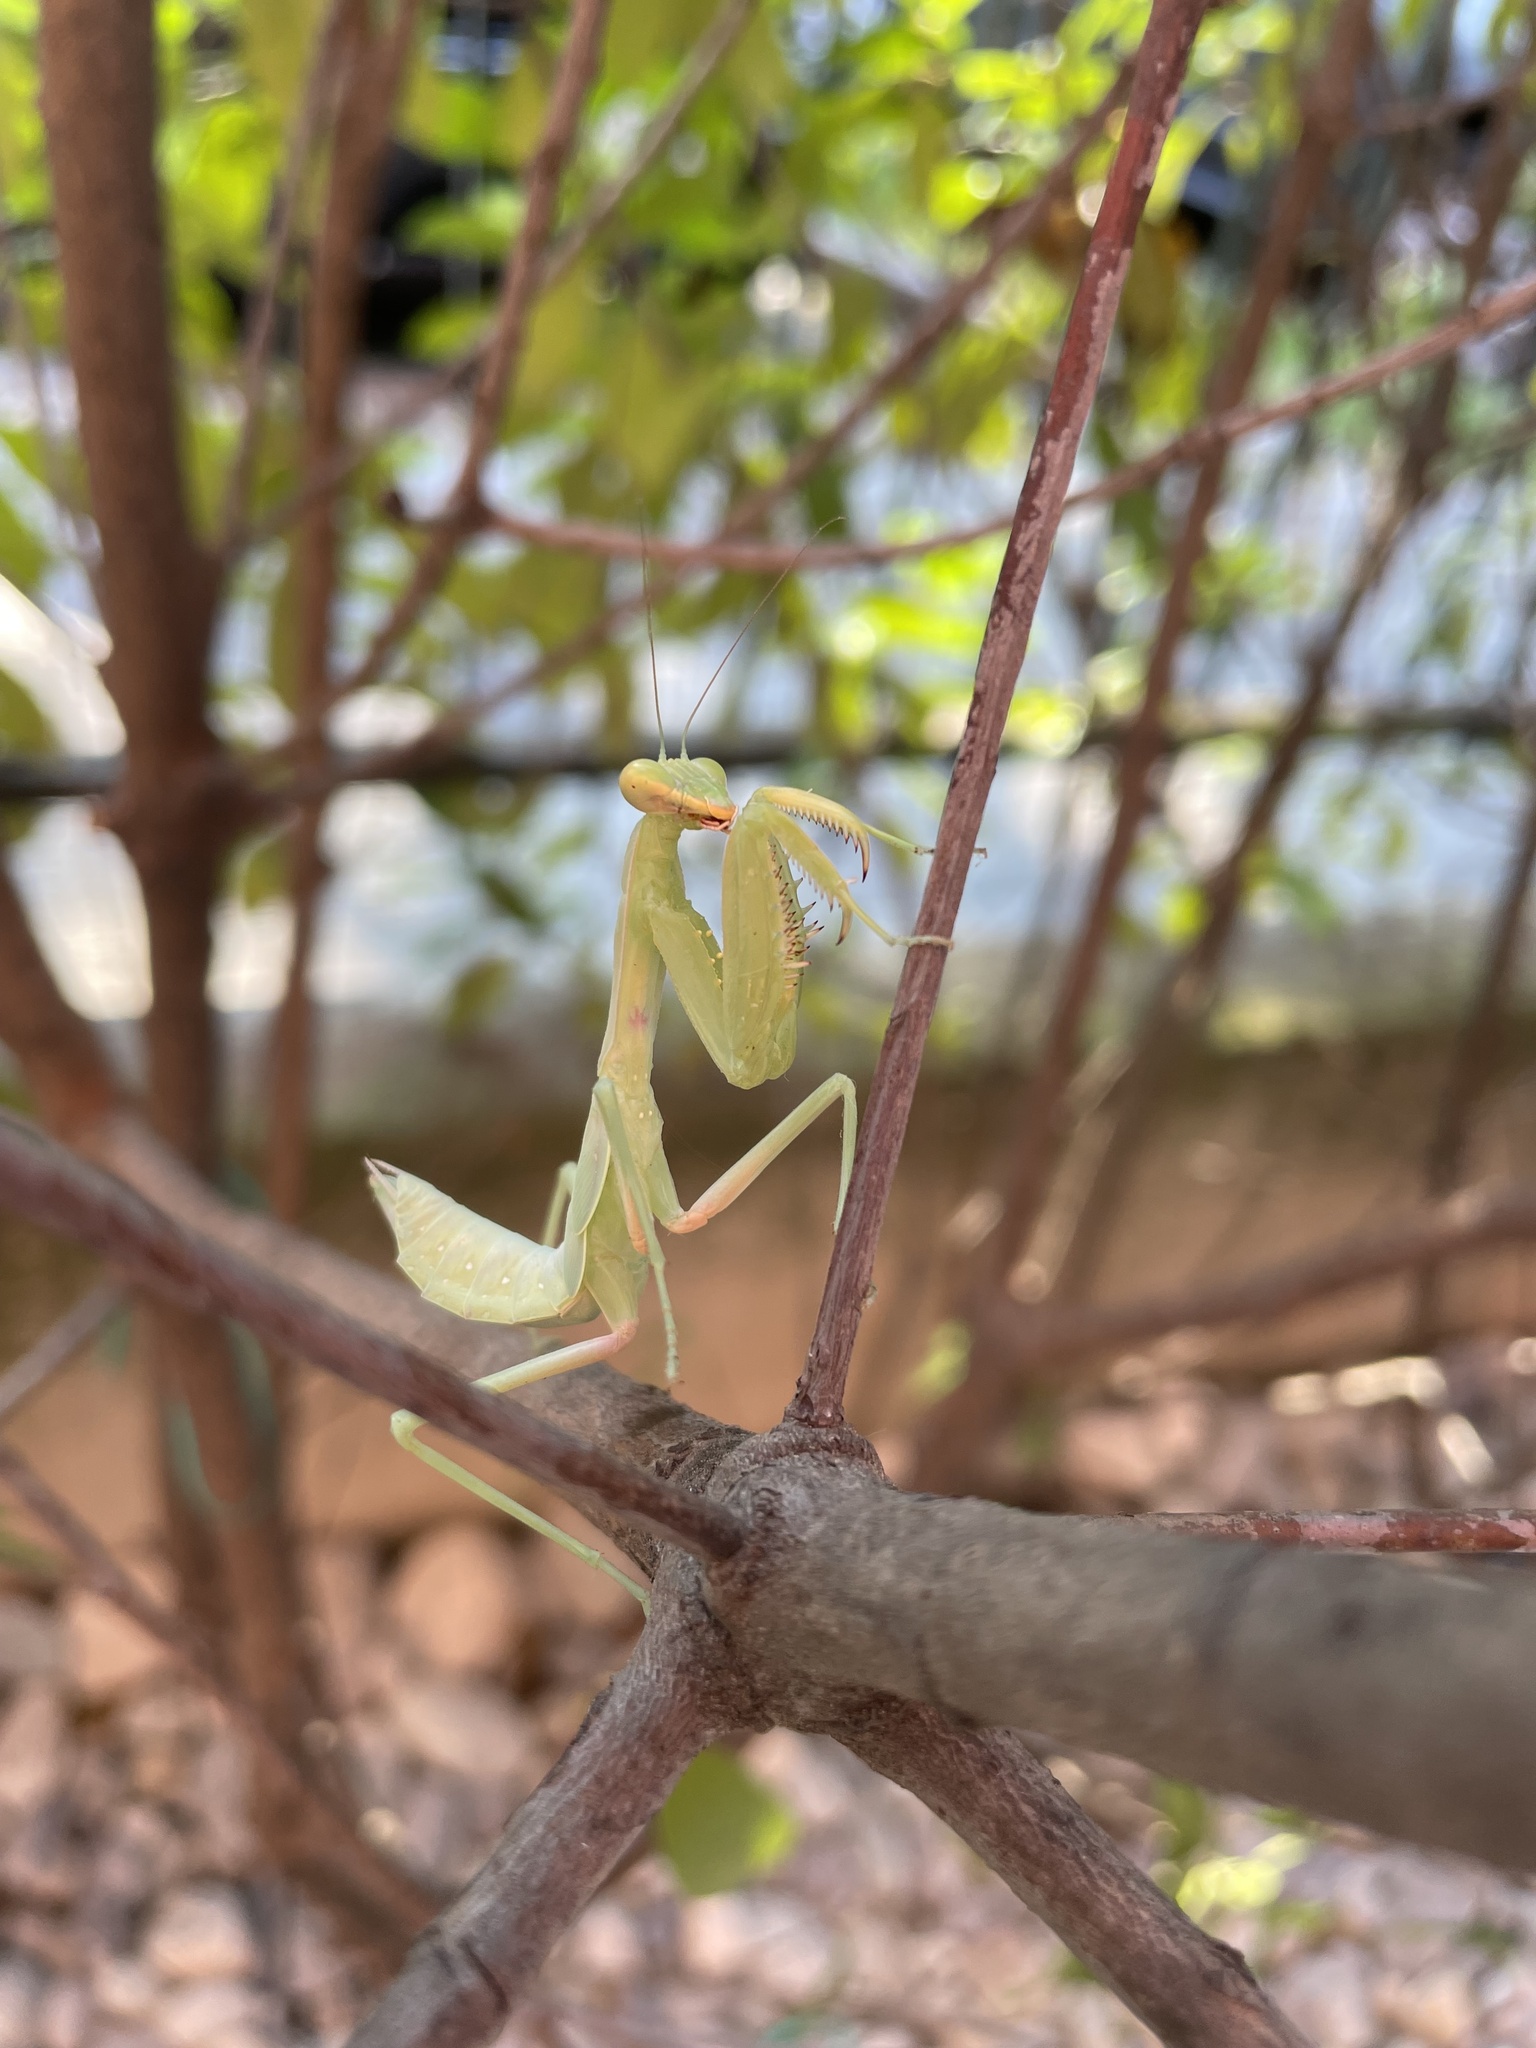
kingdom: Animalia
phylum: Arthropoda
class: Insecta
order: Mantodea
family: Mantidae
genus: Hierodula
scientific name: Hierodula transcaucasica
